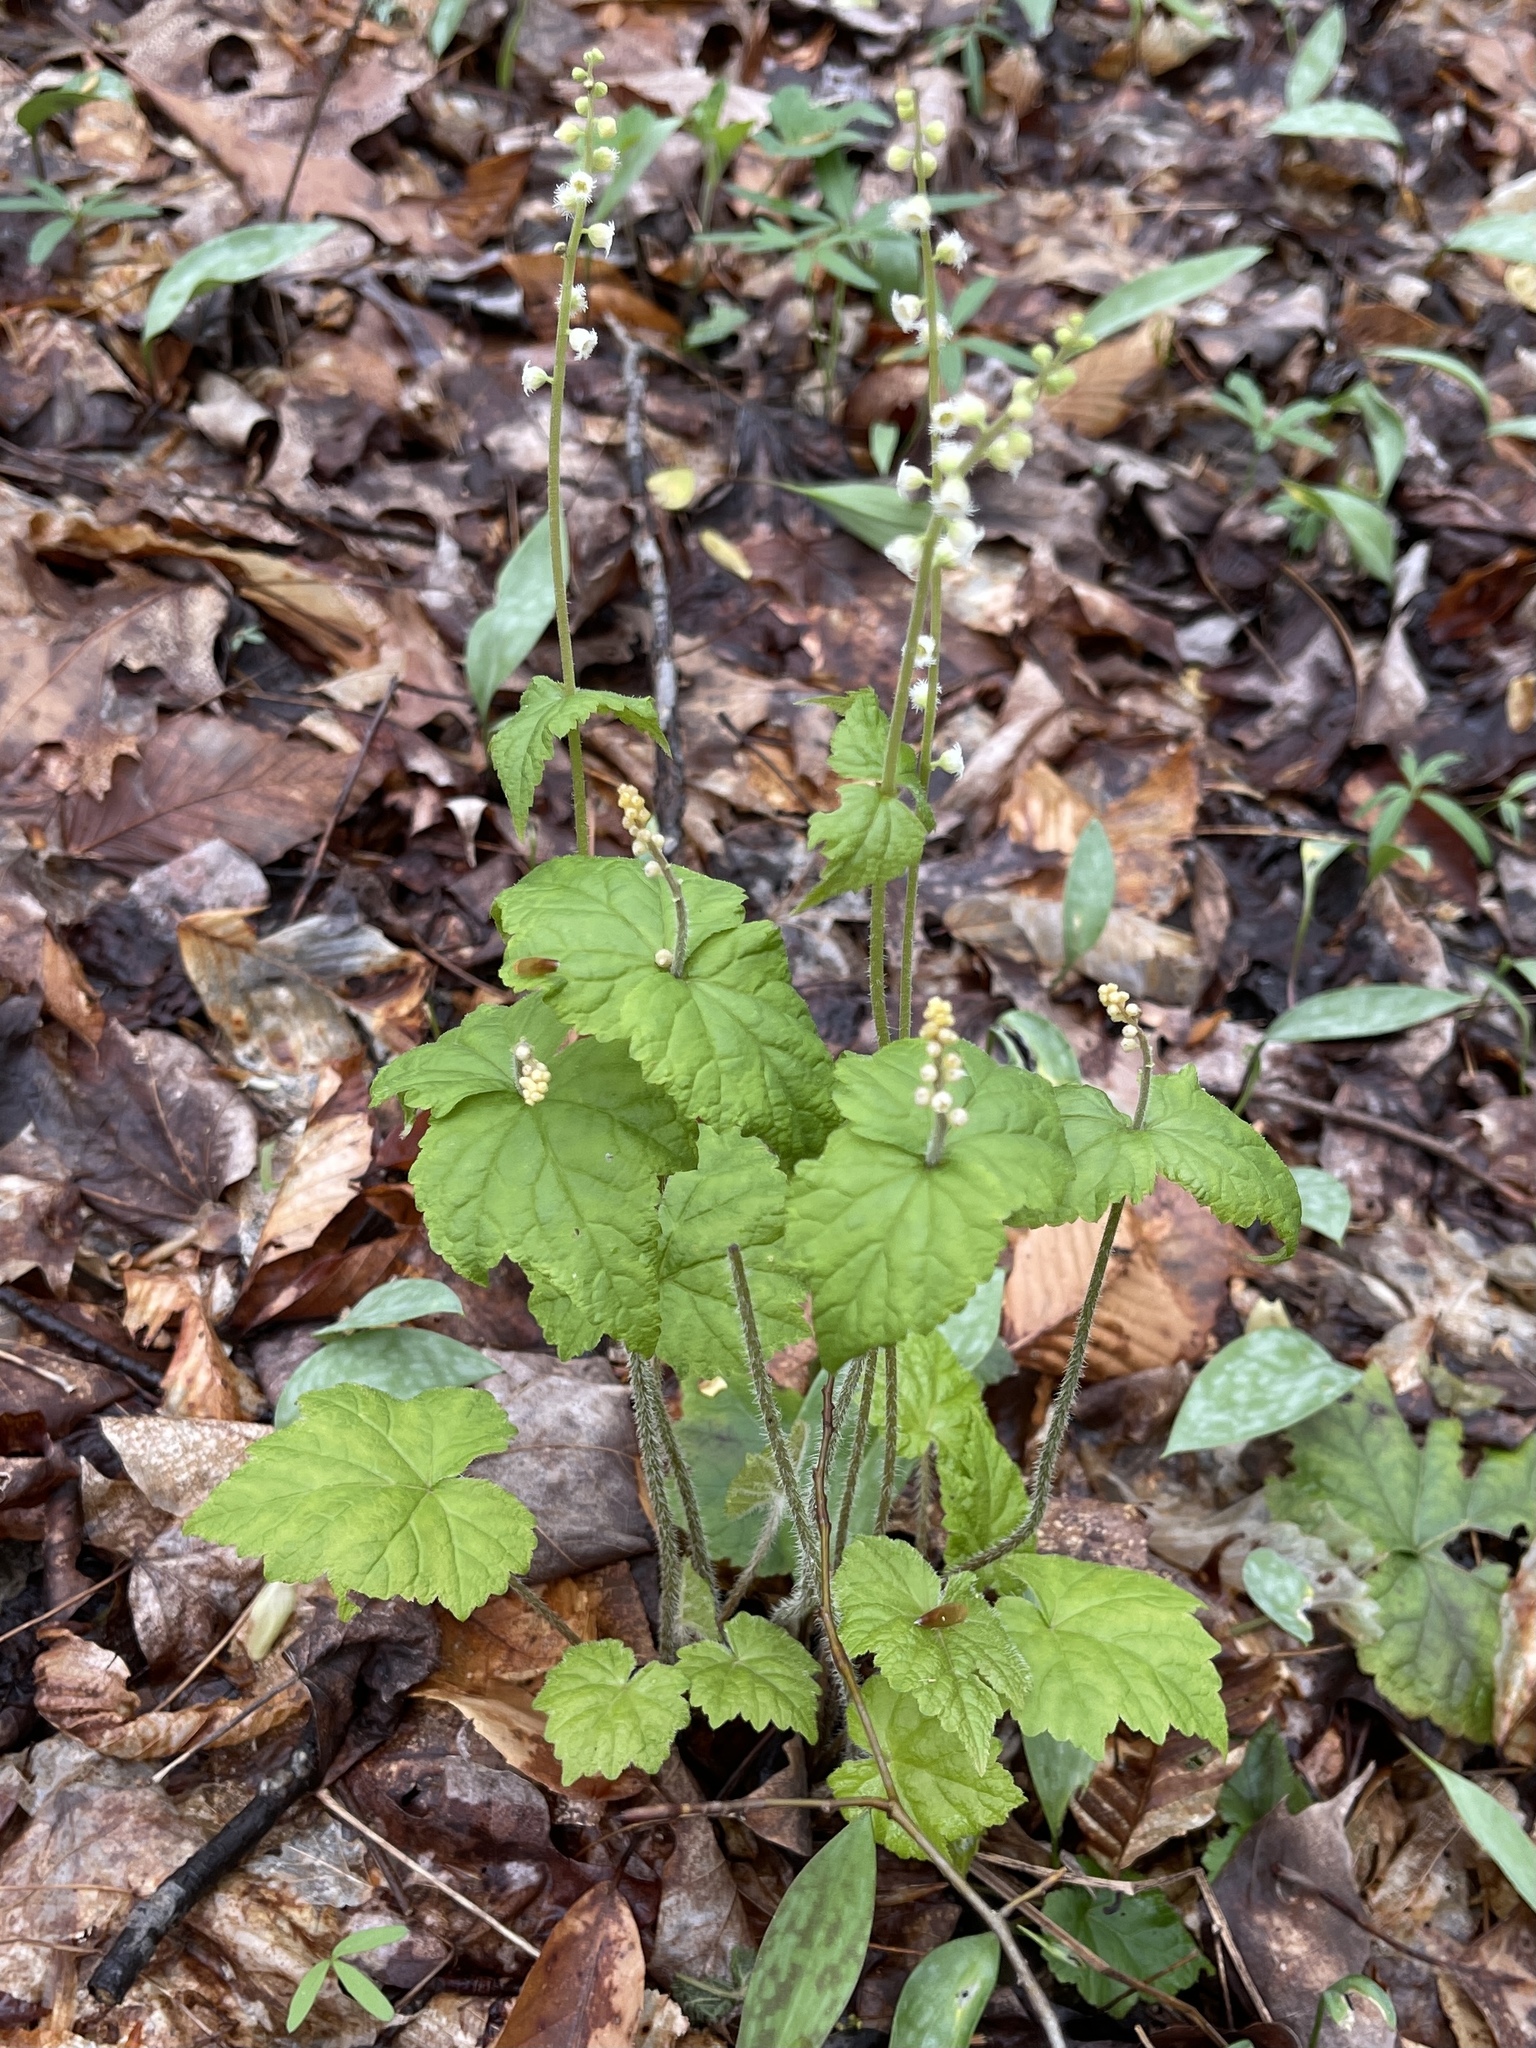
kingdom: Plantae
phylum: Tracheophyta
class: Magnoliopsida
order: Saxifragales
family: Saxifragaceae
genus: Mitella
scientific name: Mitella diphylla
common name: Coolwort
